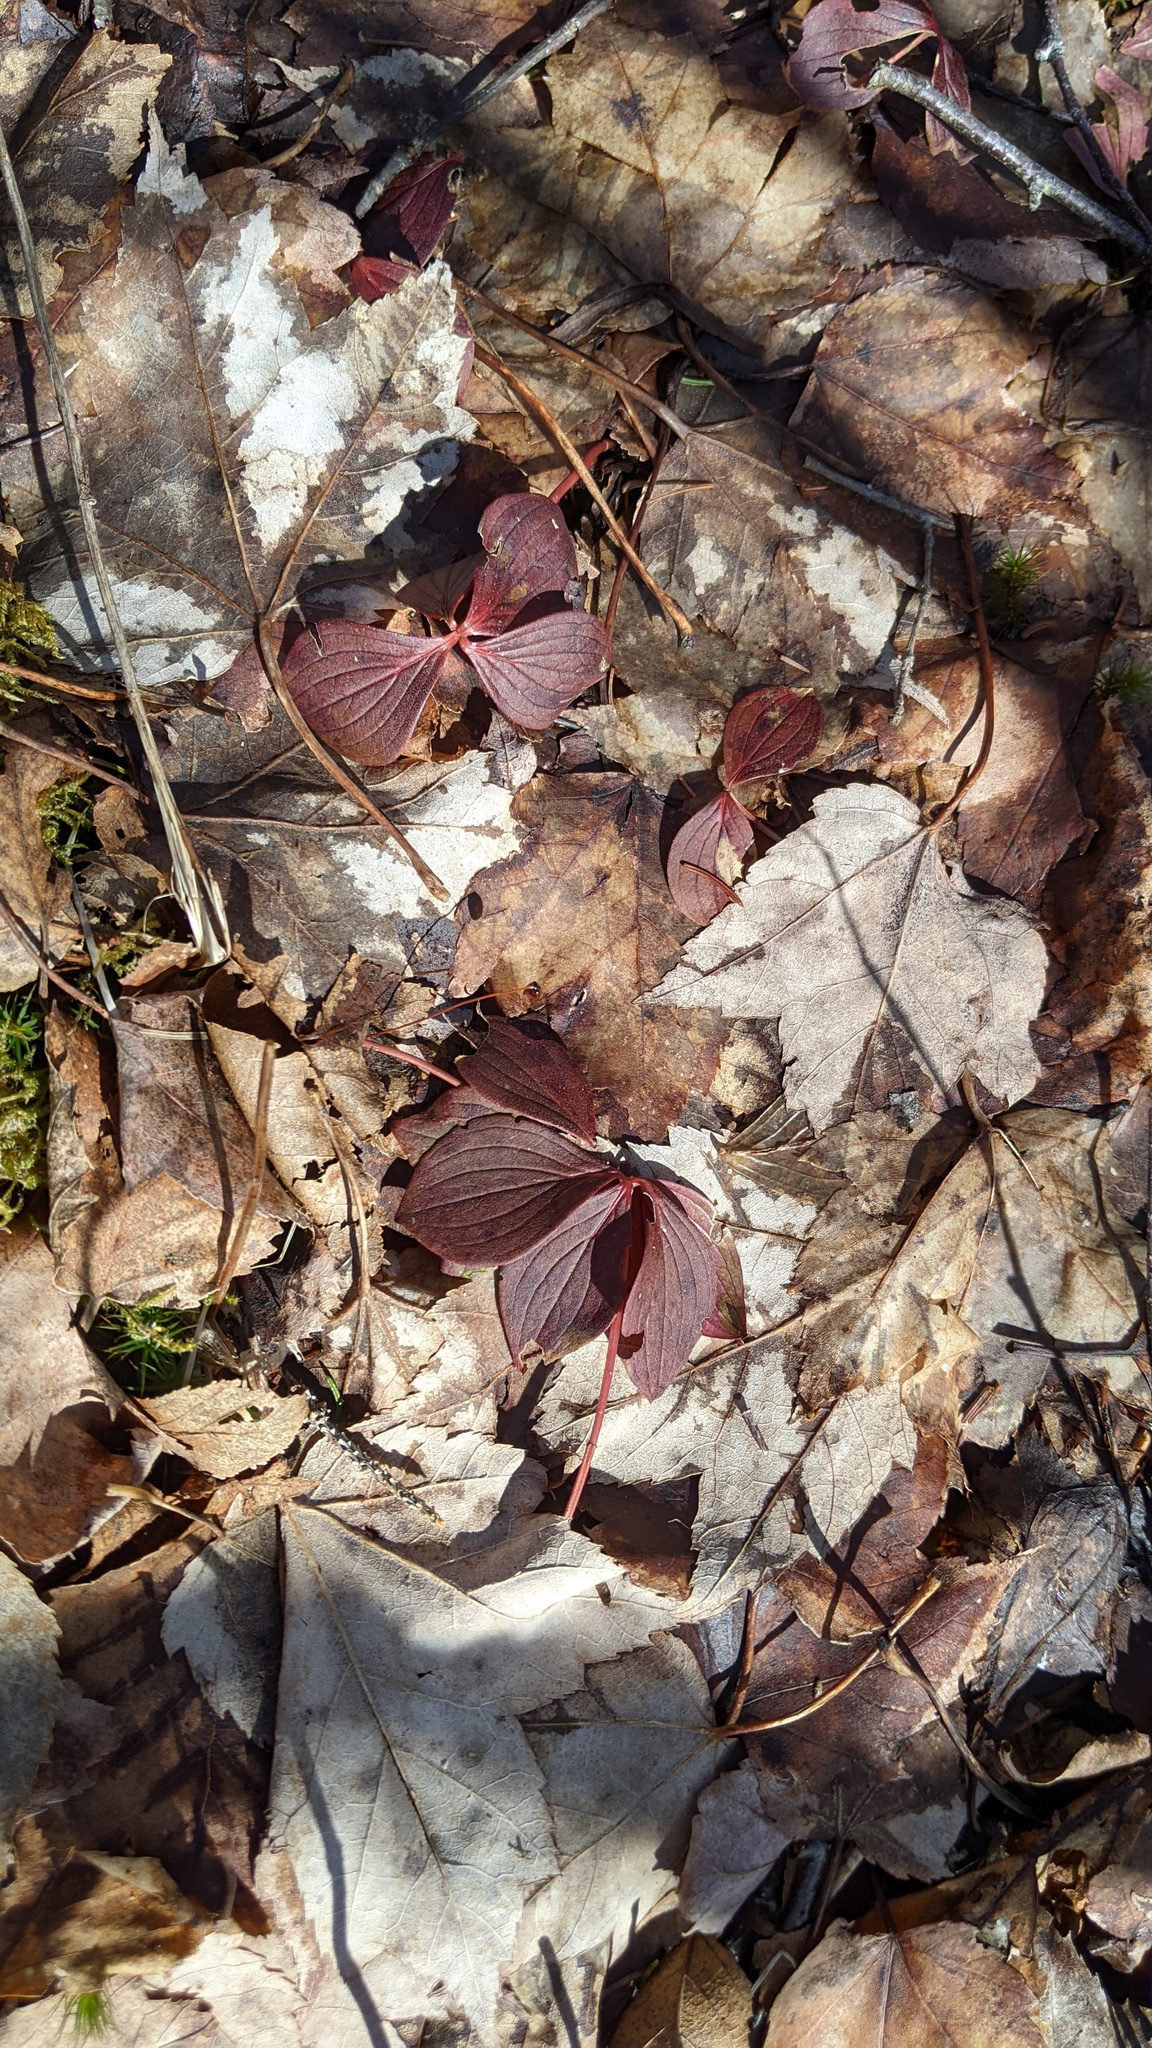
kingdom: Plantae
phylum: Tracheophyta
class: Magnoliopsida
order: Cornales
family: Cornaceae
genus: Cornus
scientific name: Cornus canadensis
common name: Creeping dogwood
